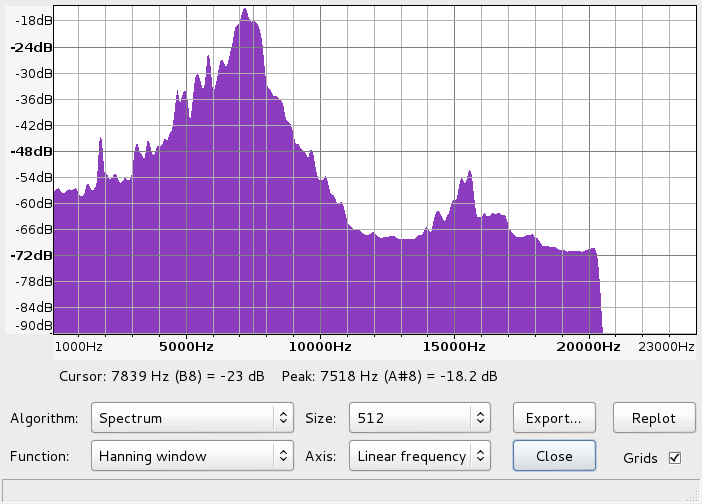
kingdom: Animalia
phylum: Chordata
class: Aves
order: Passeriformes
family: Rhipiduridae
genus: Rhipidura
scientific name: Rhipidura fuliginosa
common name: New zealand fantail
